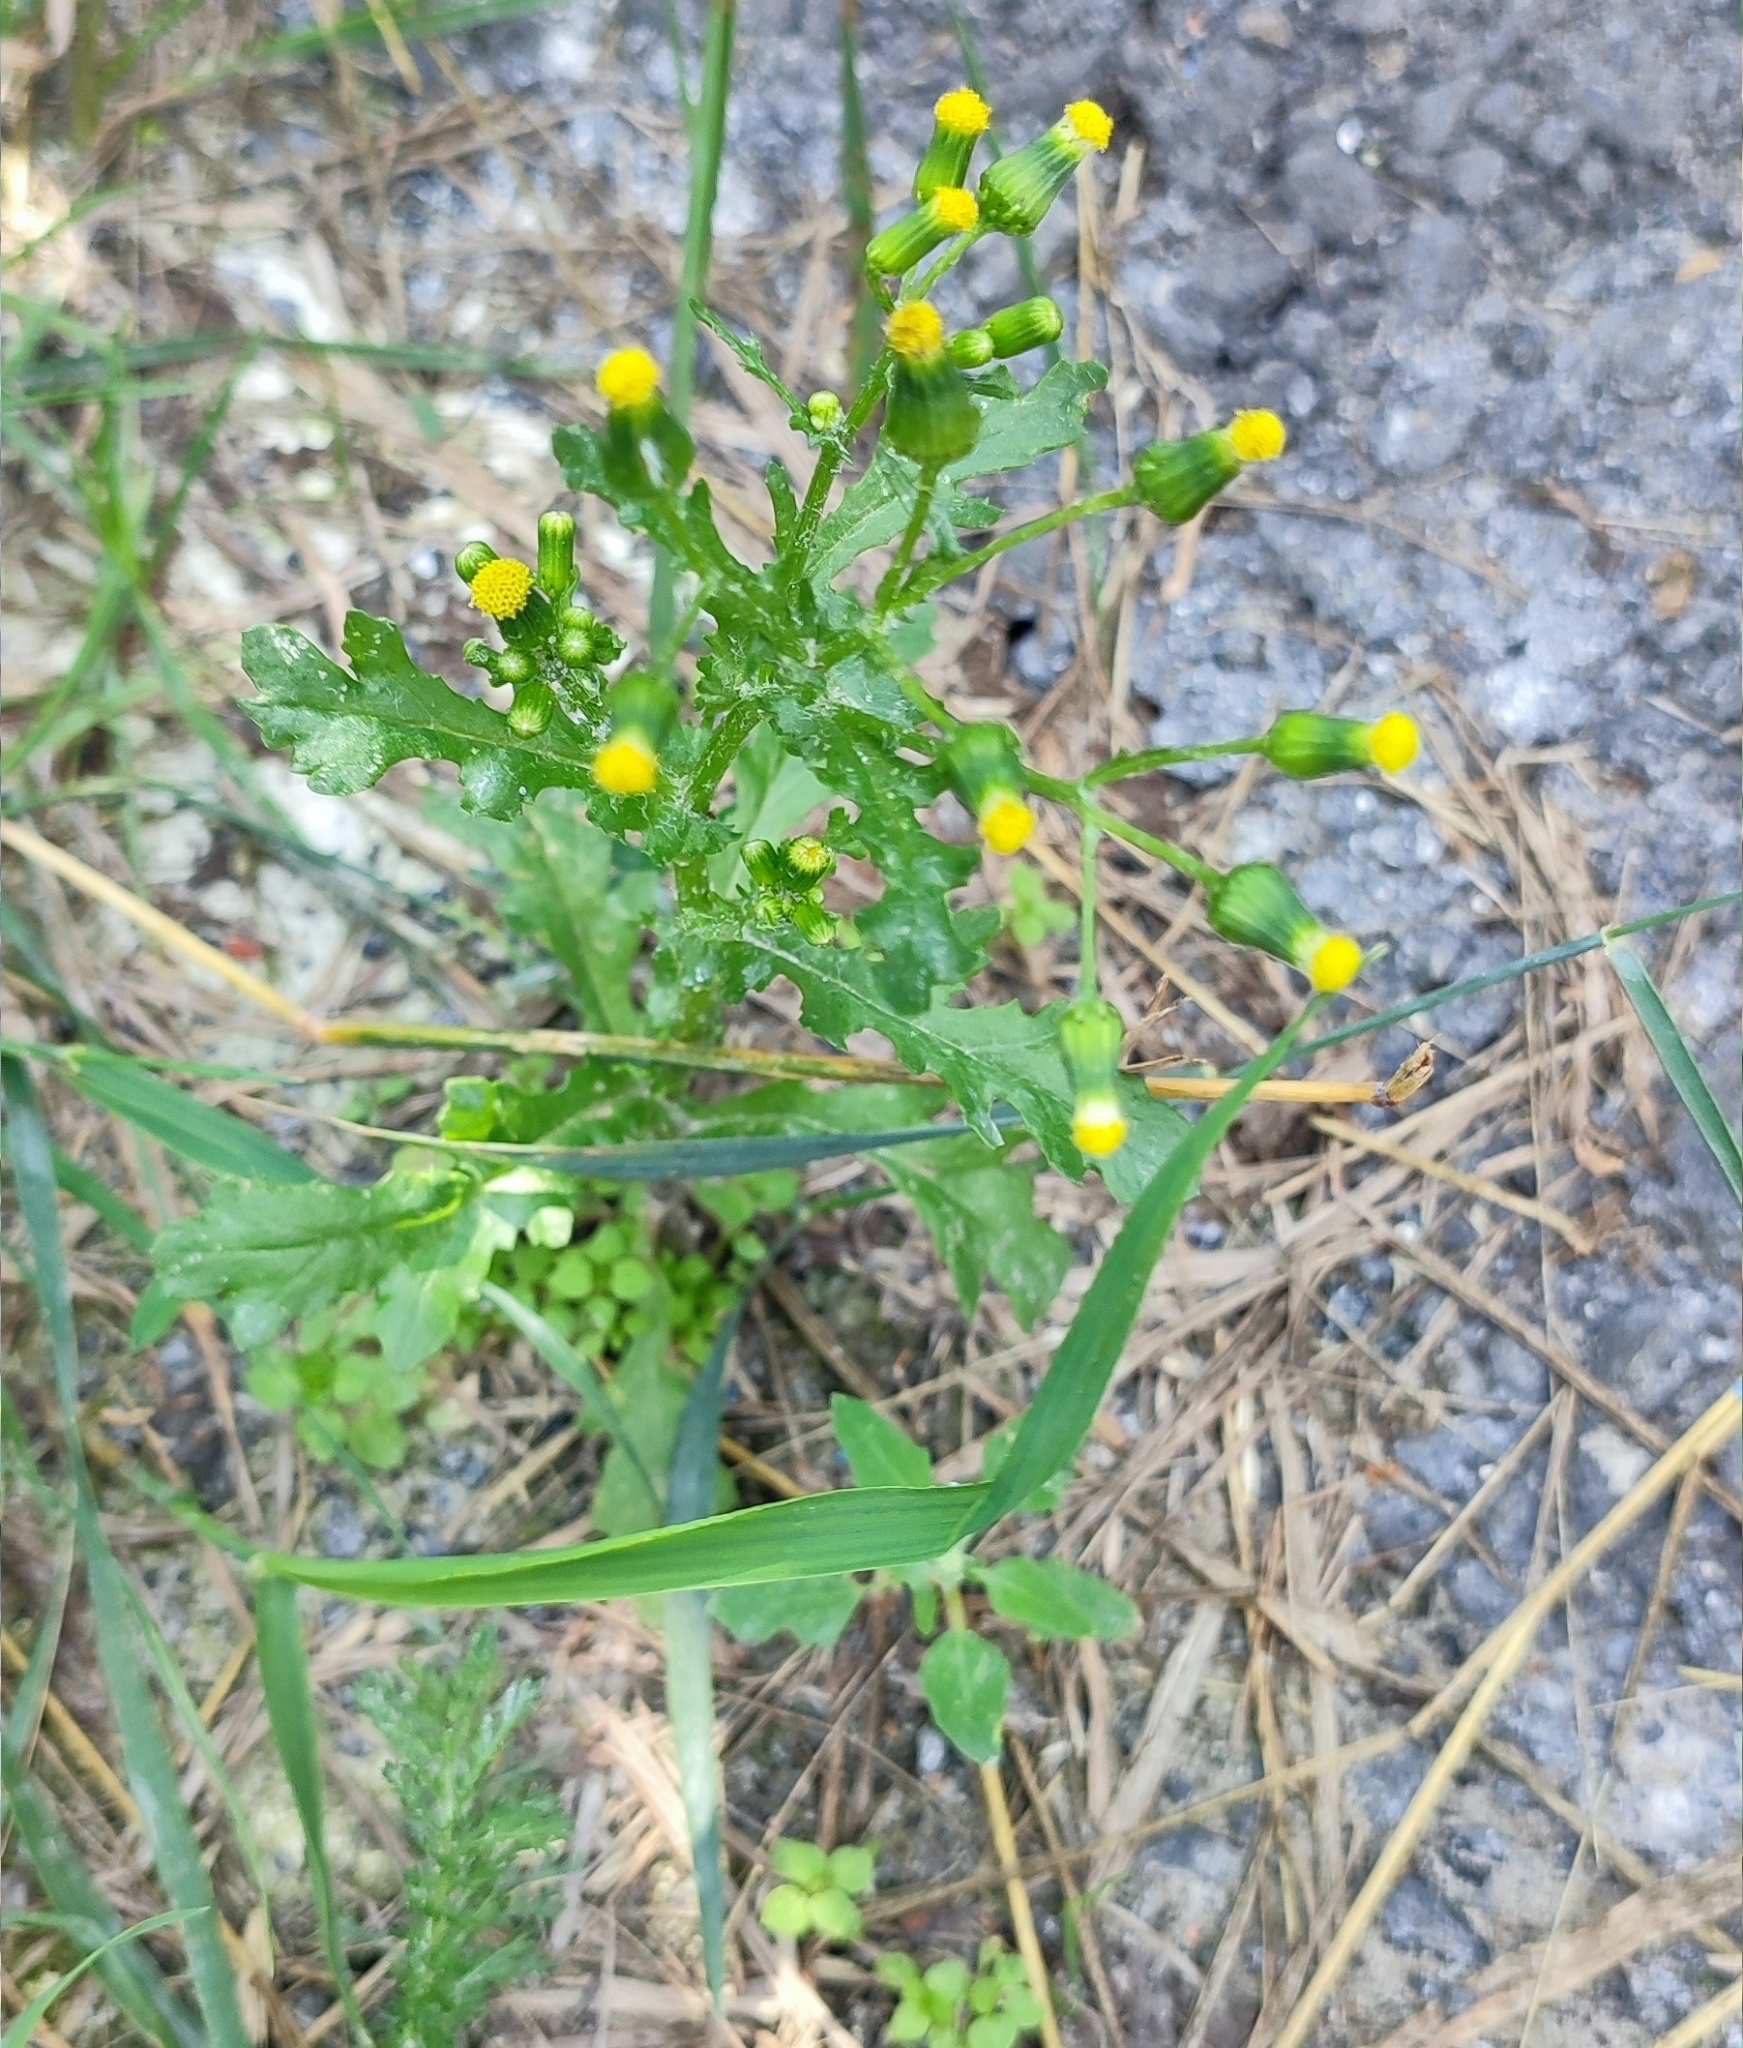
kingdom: Plantae
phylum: Tracheophyta
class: Magnoliopsida
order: Asterales
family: Asteraceae
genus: Senecio
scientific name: Senecio vulgaris
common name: Old-man-in-the-spring
